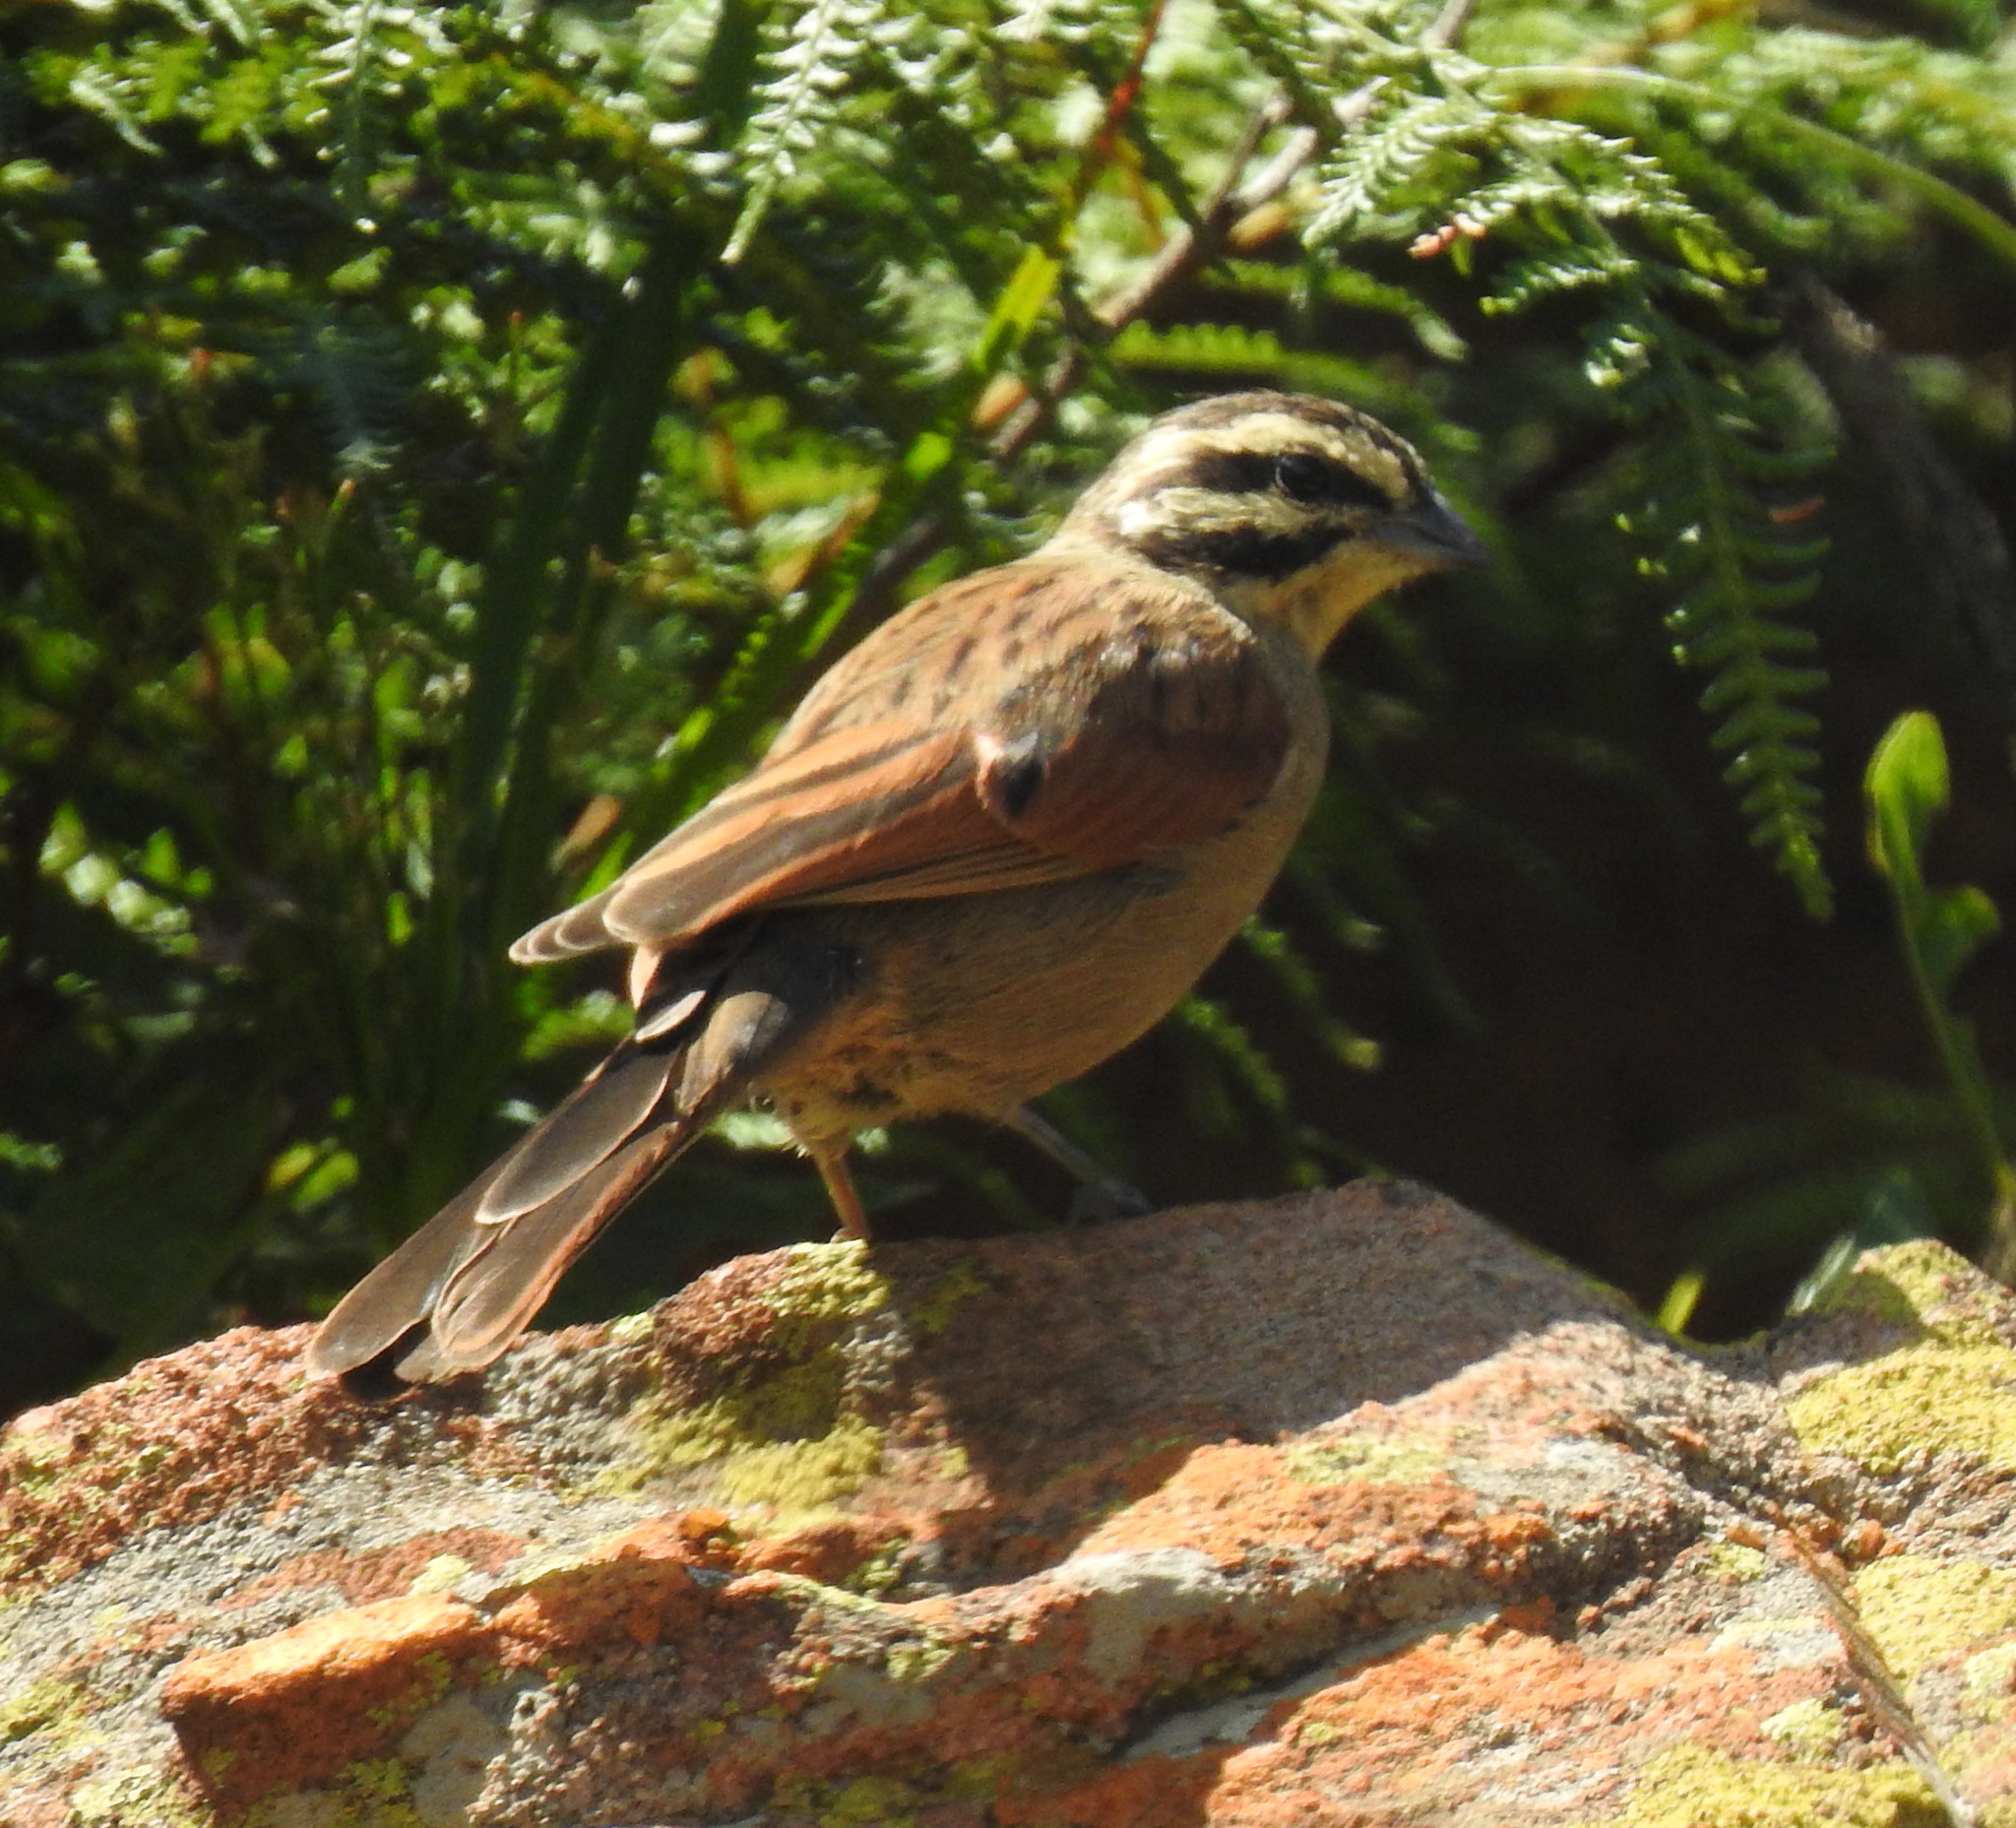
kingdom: Animalia
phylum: Chordata
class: Aves
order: Passeriformes
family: Emberizidae
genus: Emberiza
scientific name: Emberiza capensis
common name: Cape bunting
